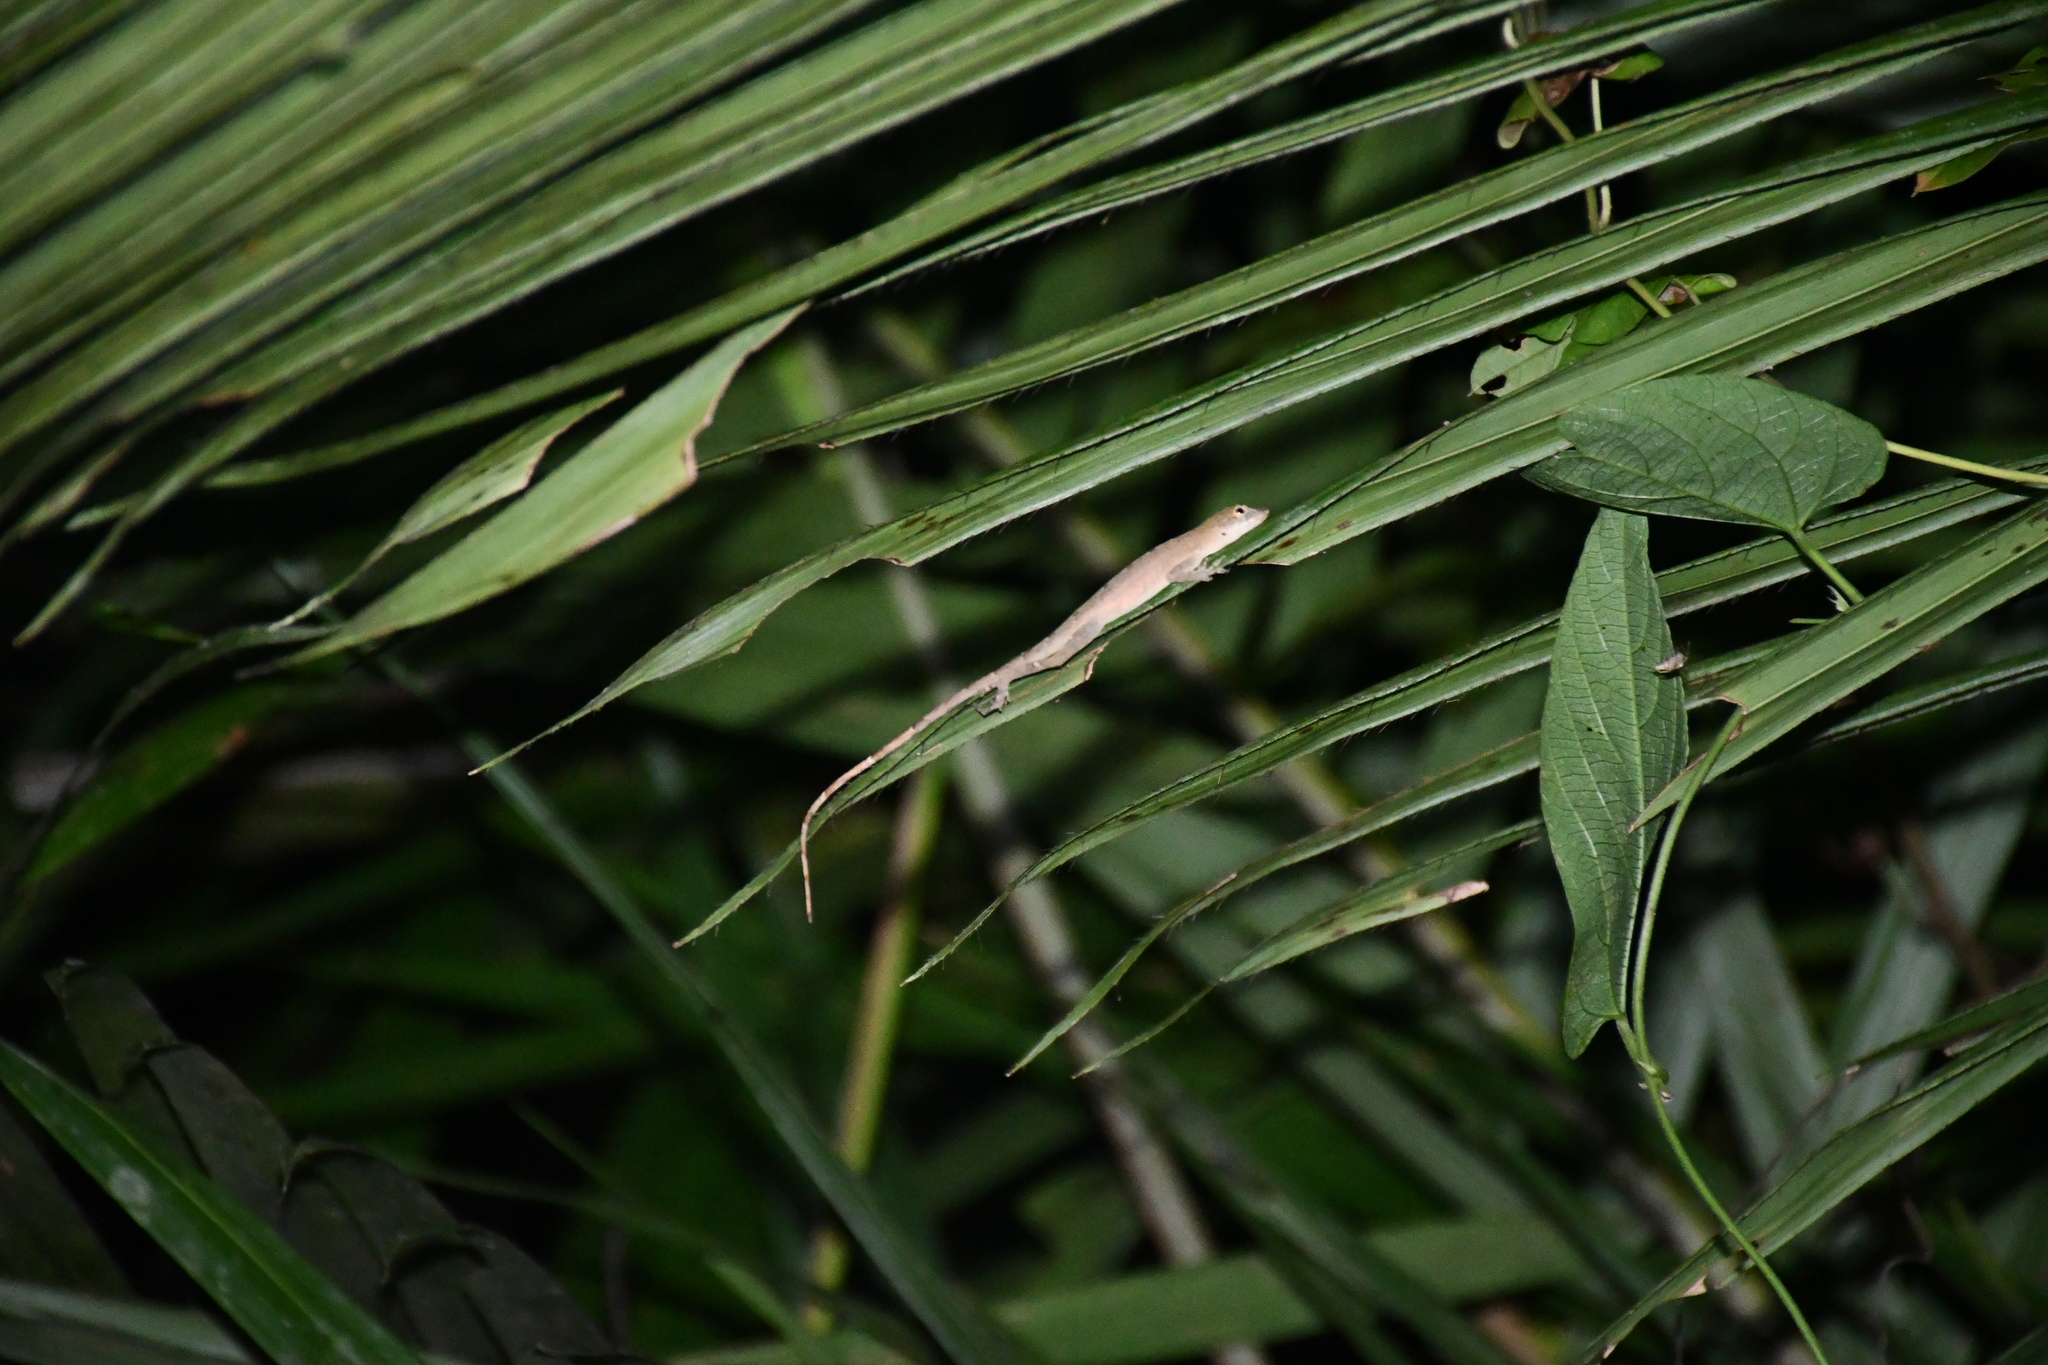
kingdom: Animalia
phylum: Chordata
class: Squamata
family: Dactyloidae
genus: Anolis
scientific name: Anolis fuscoauratus
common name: Brown-eared anole
